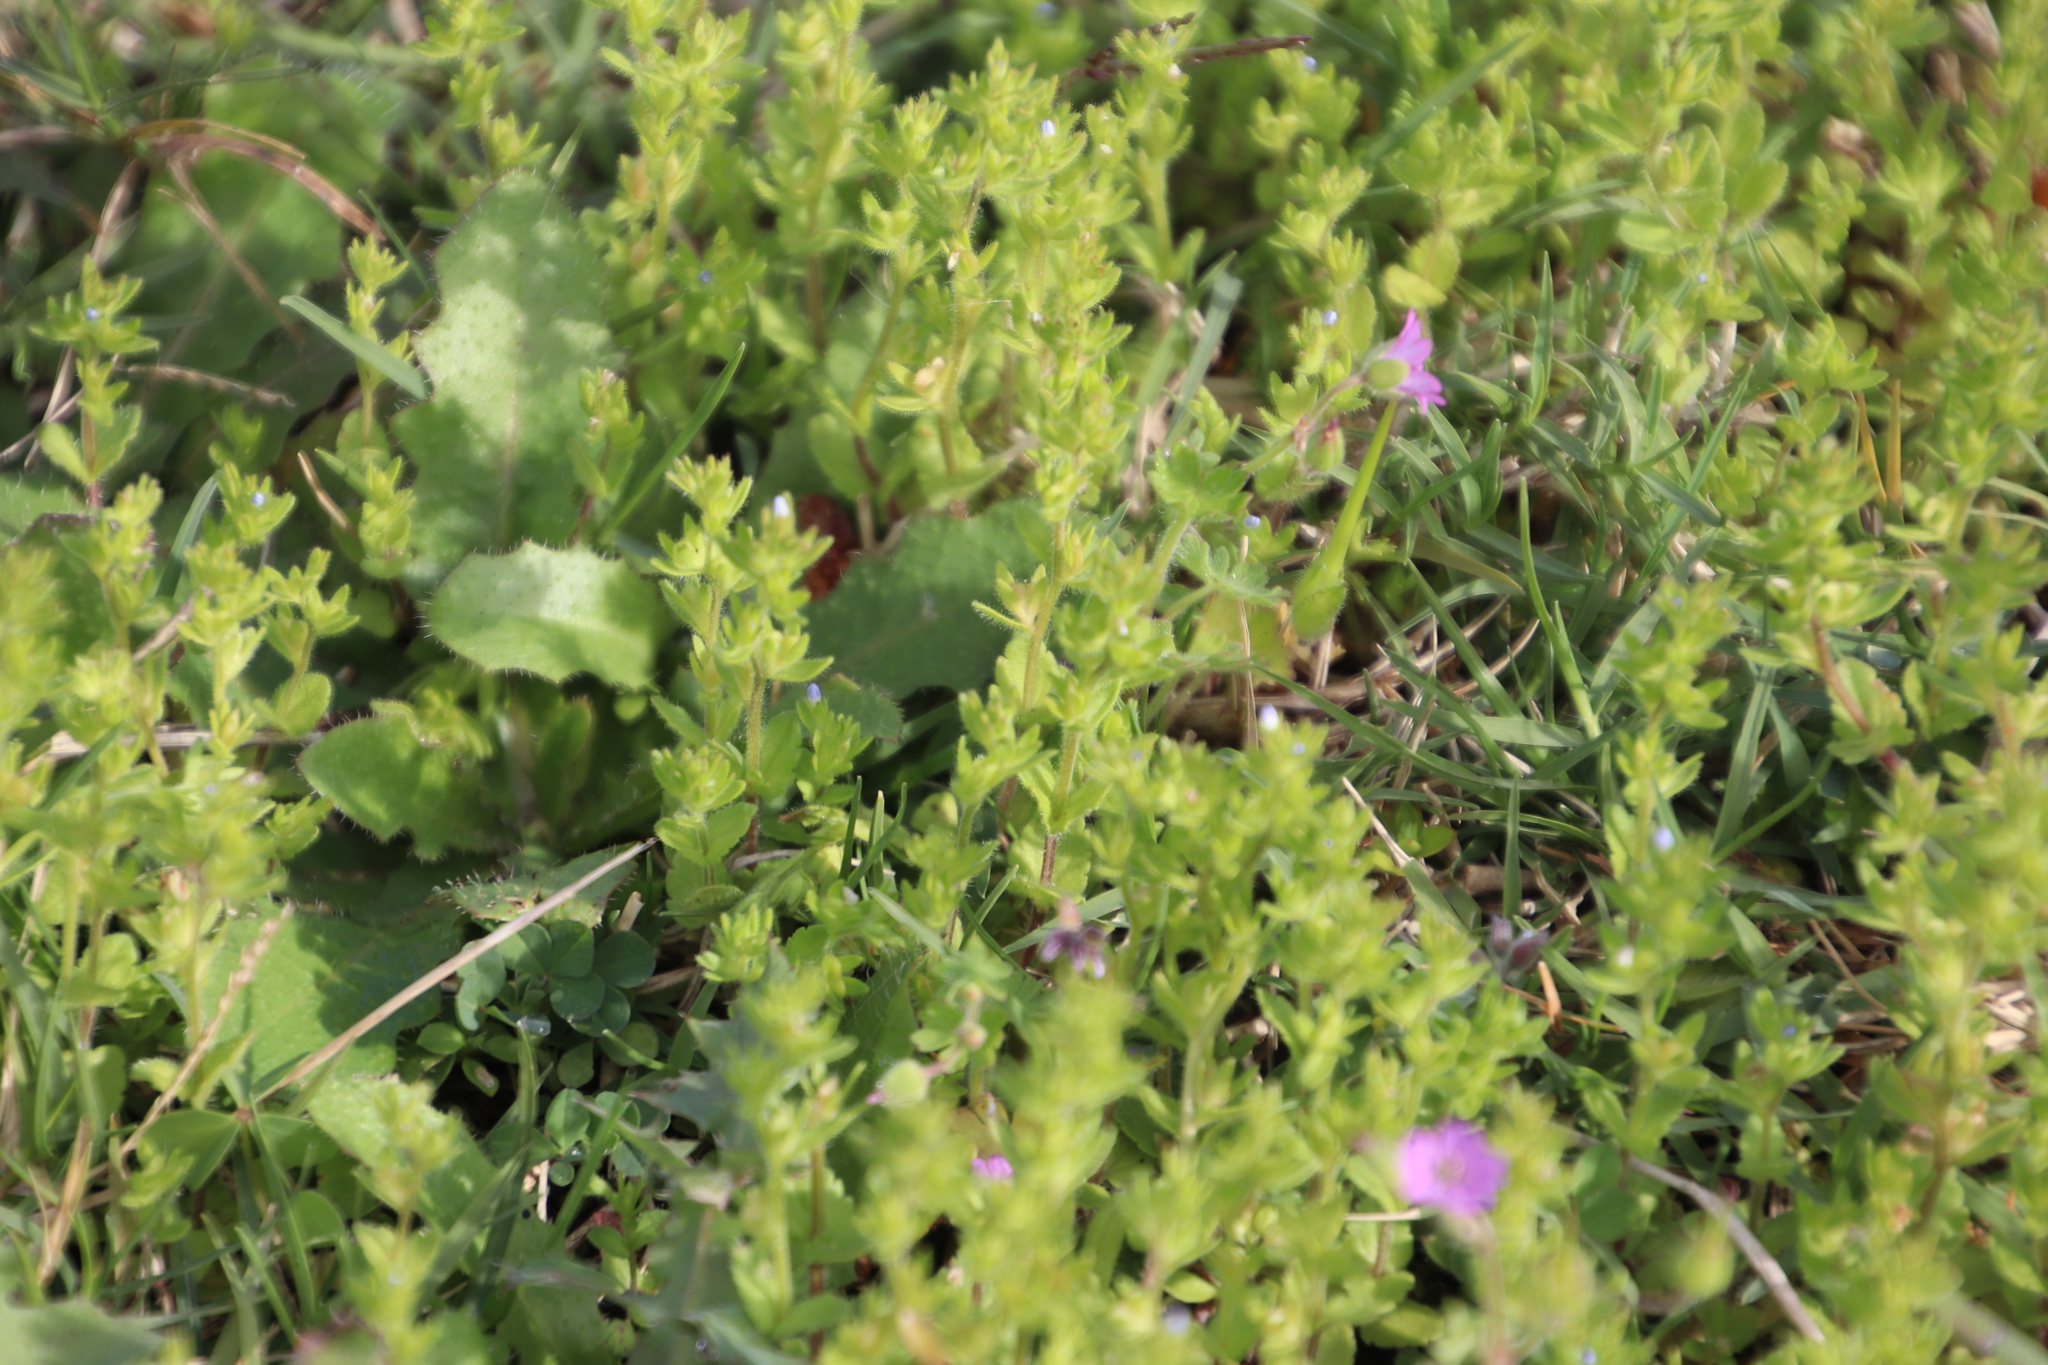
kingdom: Plantae
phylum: Tracheophyta
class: Magnoliopsida
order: Lamiales
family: Plantaginaceae
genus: Veronica
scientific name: Veronica persica
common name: Common field-speedwell
